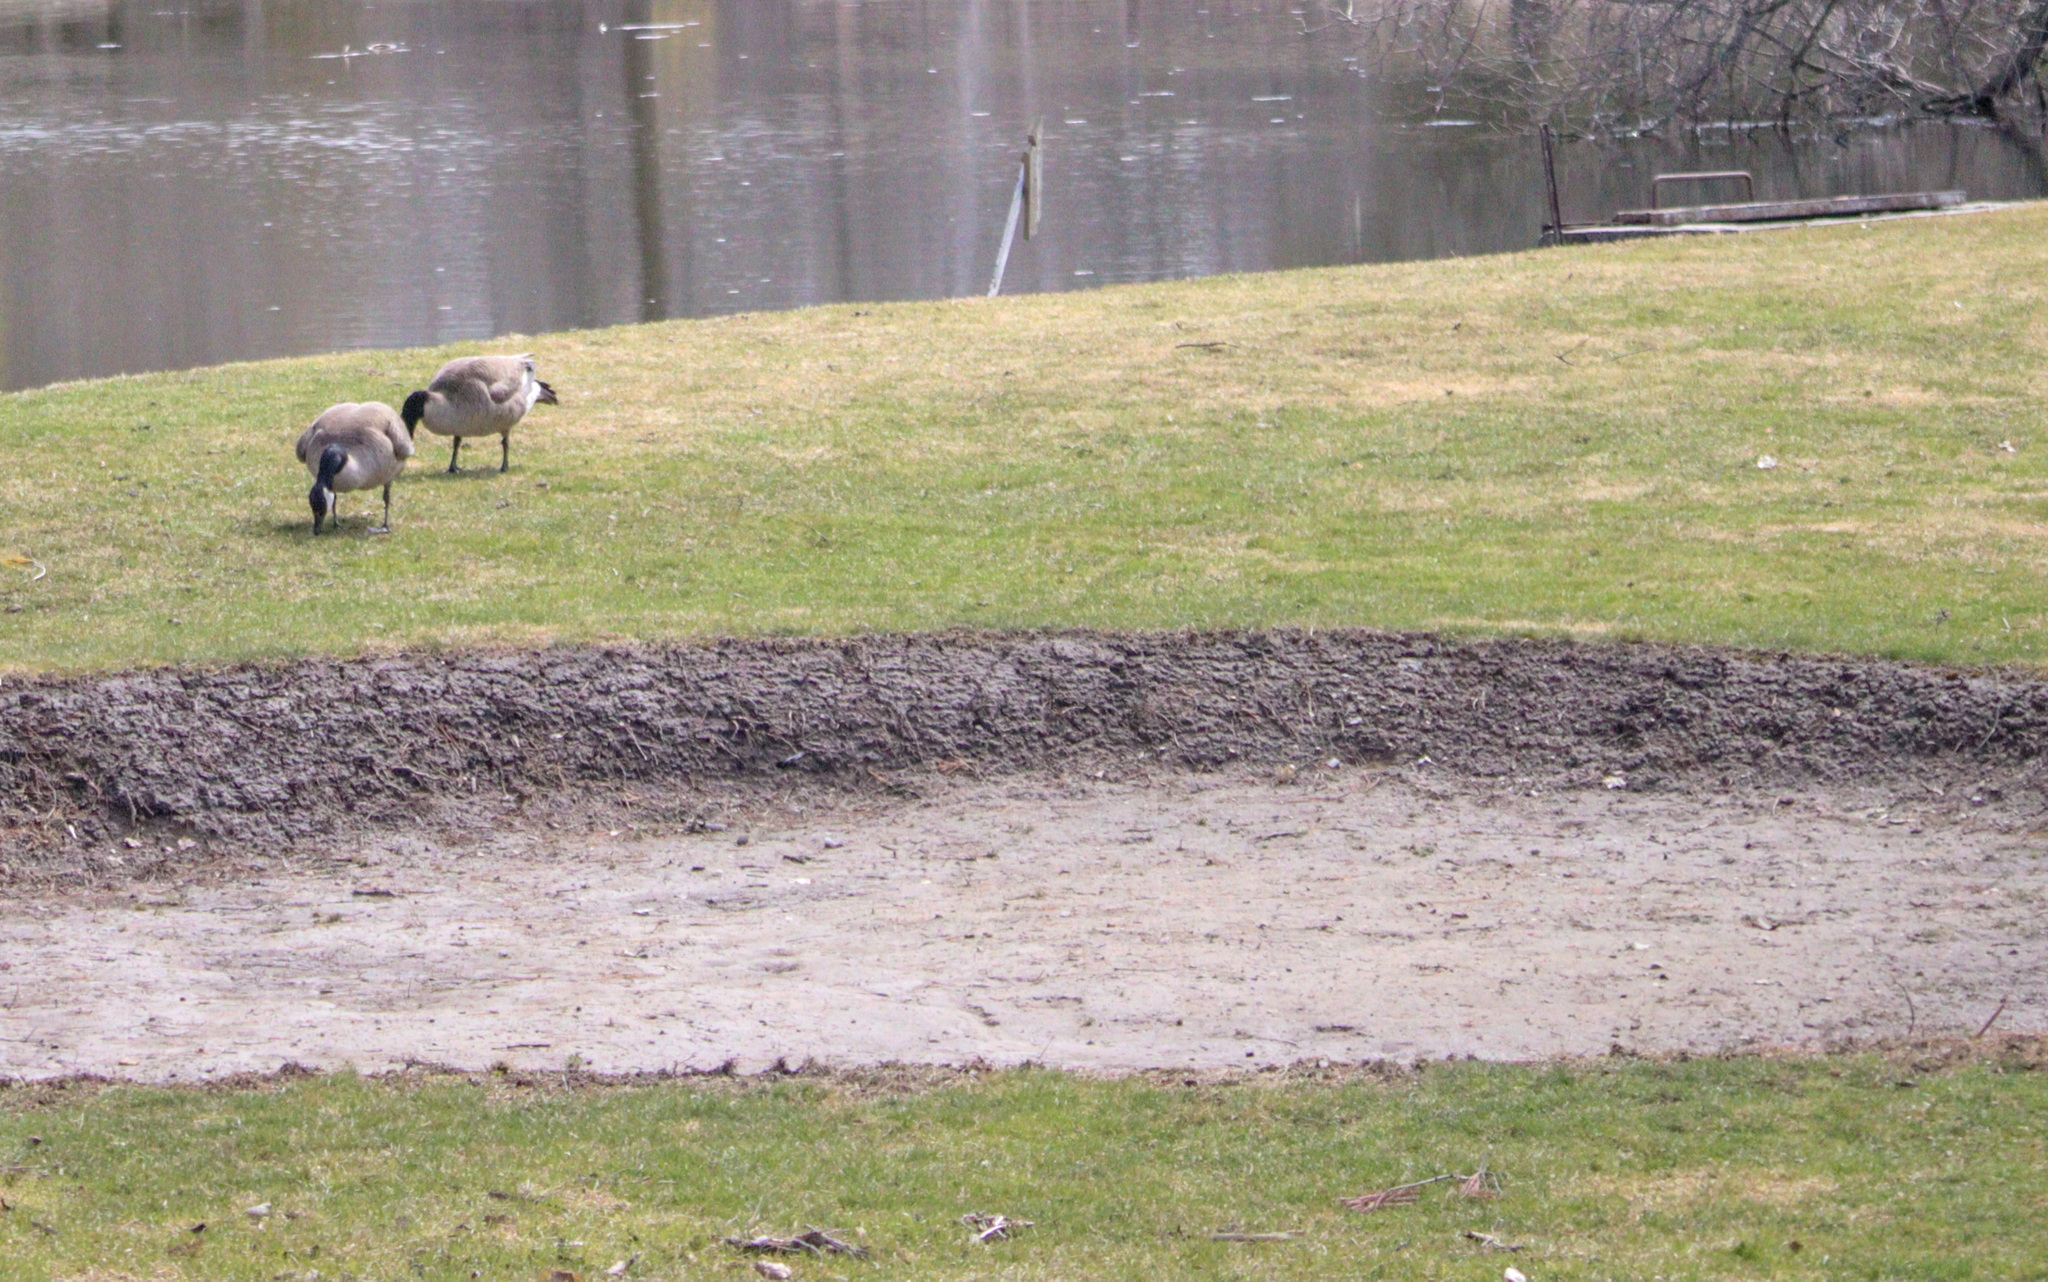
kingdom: Animalia
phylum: Chordata
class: Aves
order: Anseriformes
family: Anatidae
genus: Branta
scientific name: Branta canadensis
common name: Canada goose
